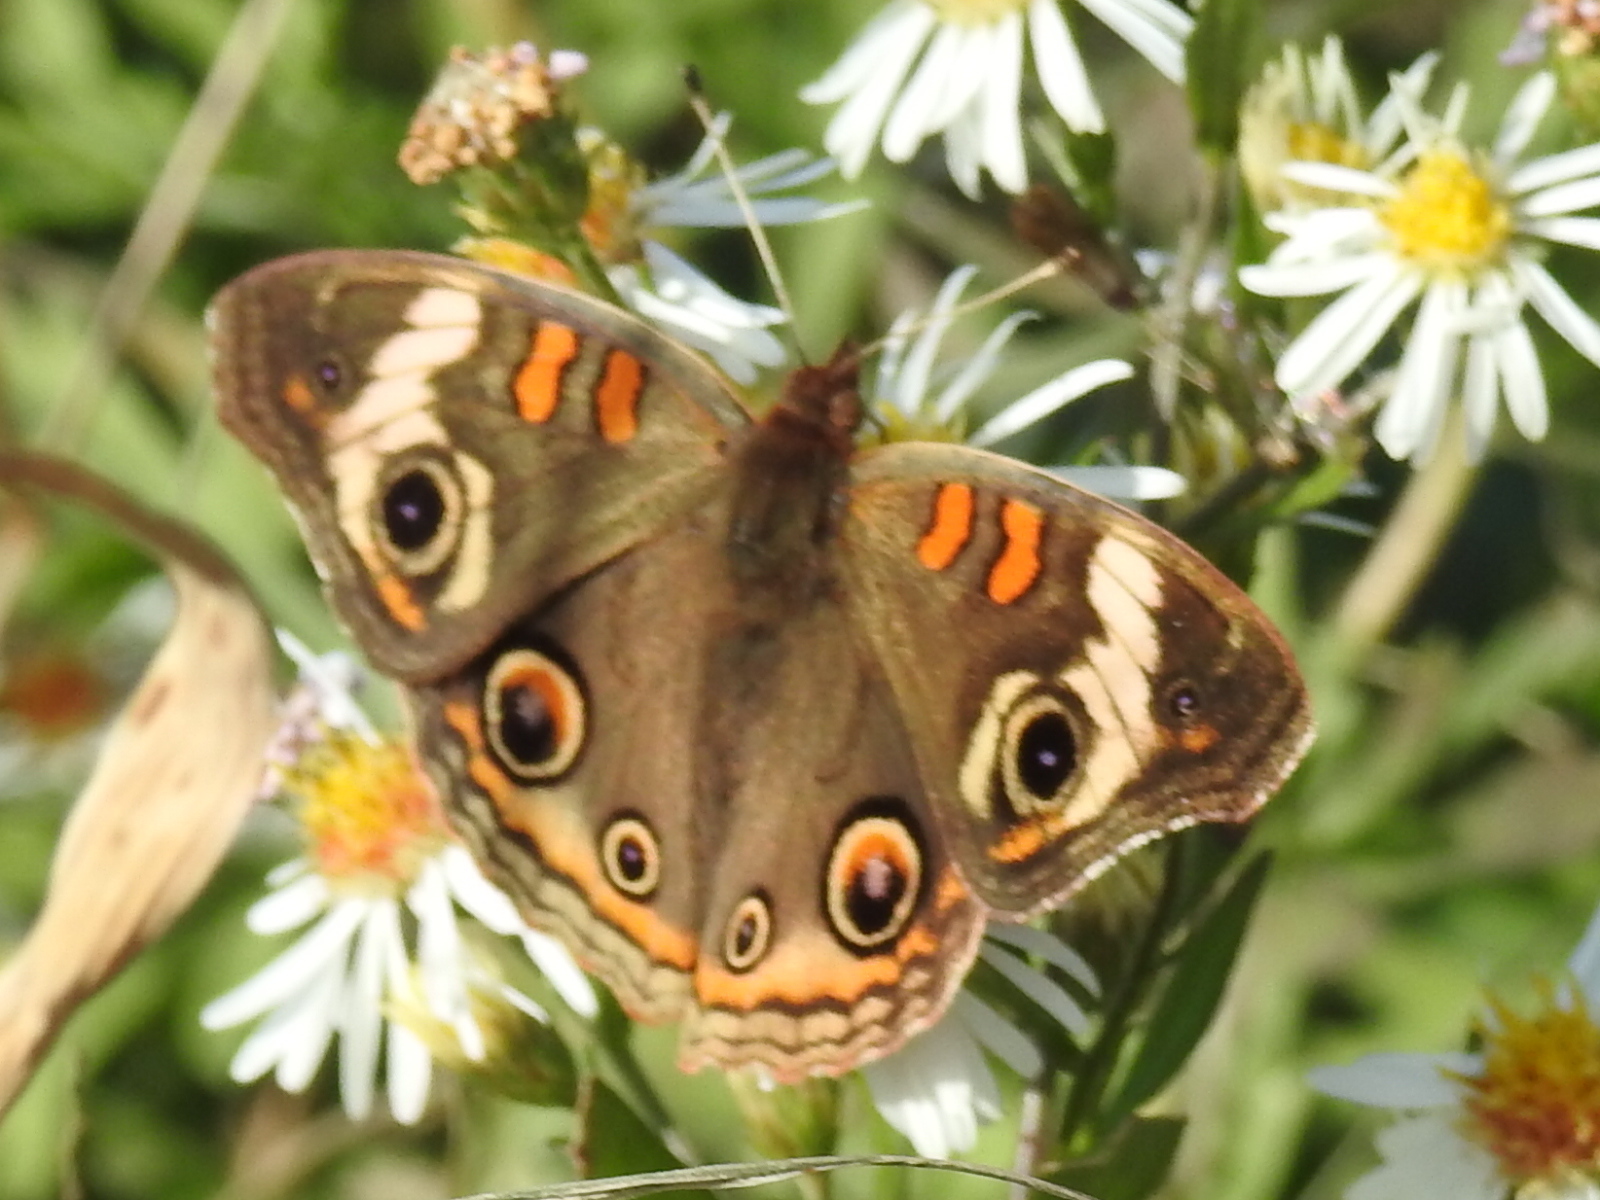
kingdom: Animalia
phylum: Arthropoda
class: Insecta
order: Lepidoptera
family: Nymphalidae
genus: Junonia
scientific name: Junonia coenia
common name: Common buckeye
